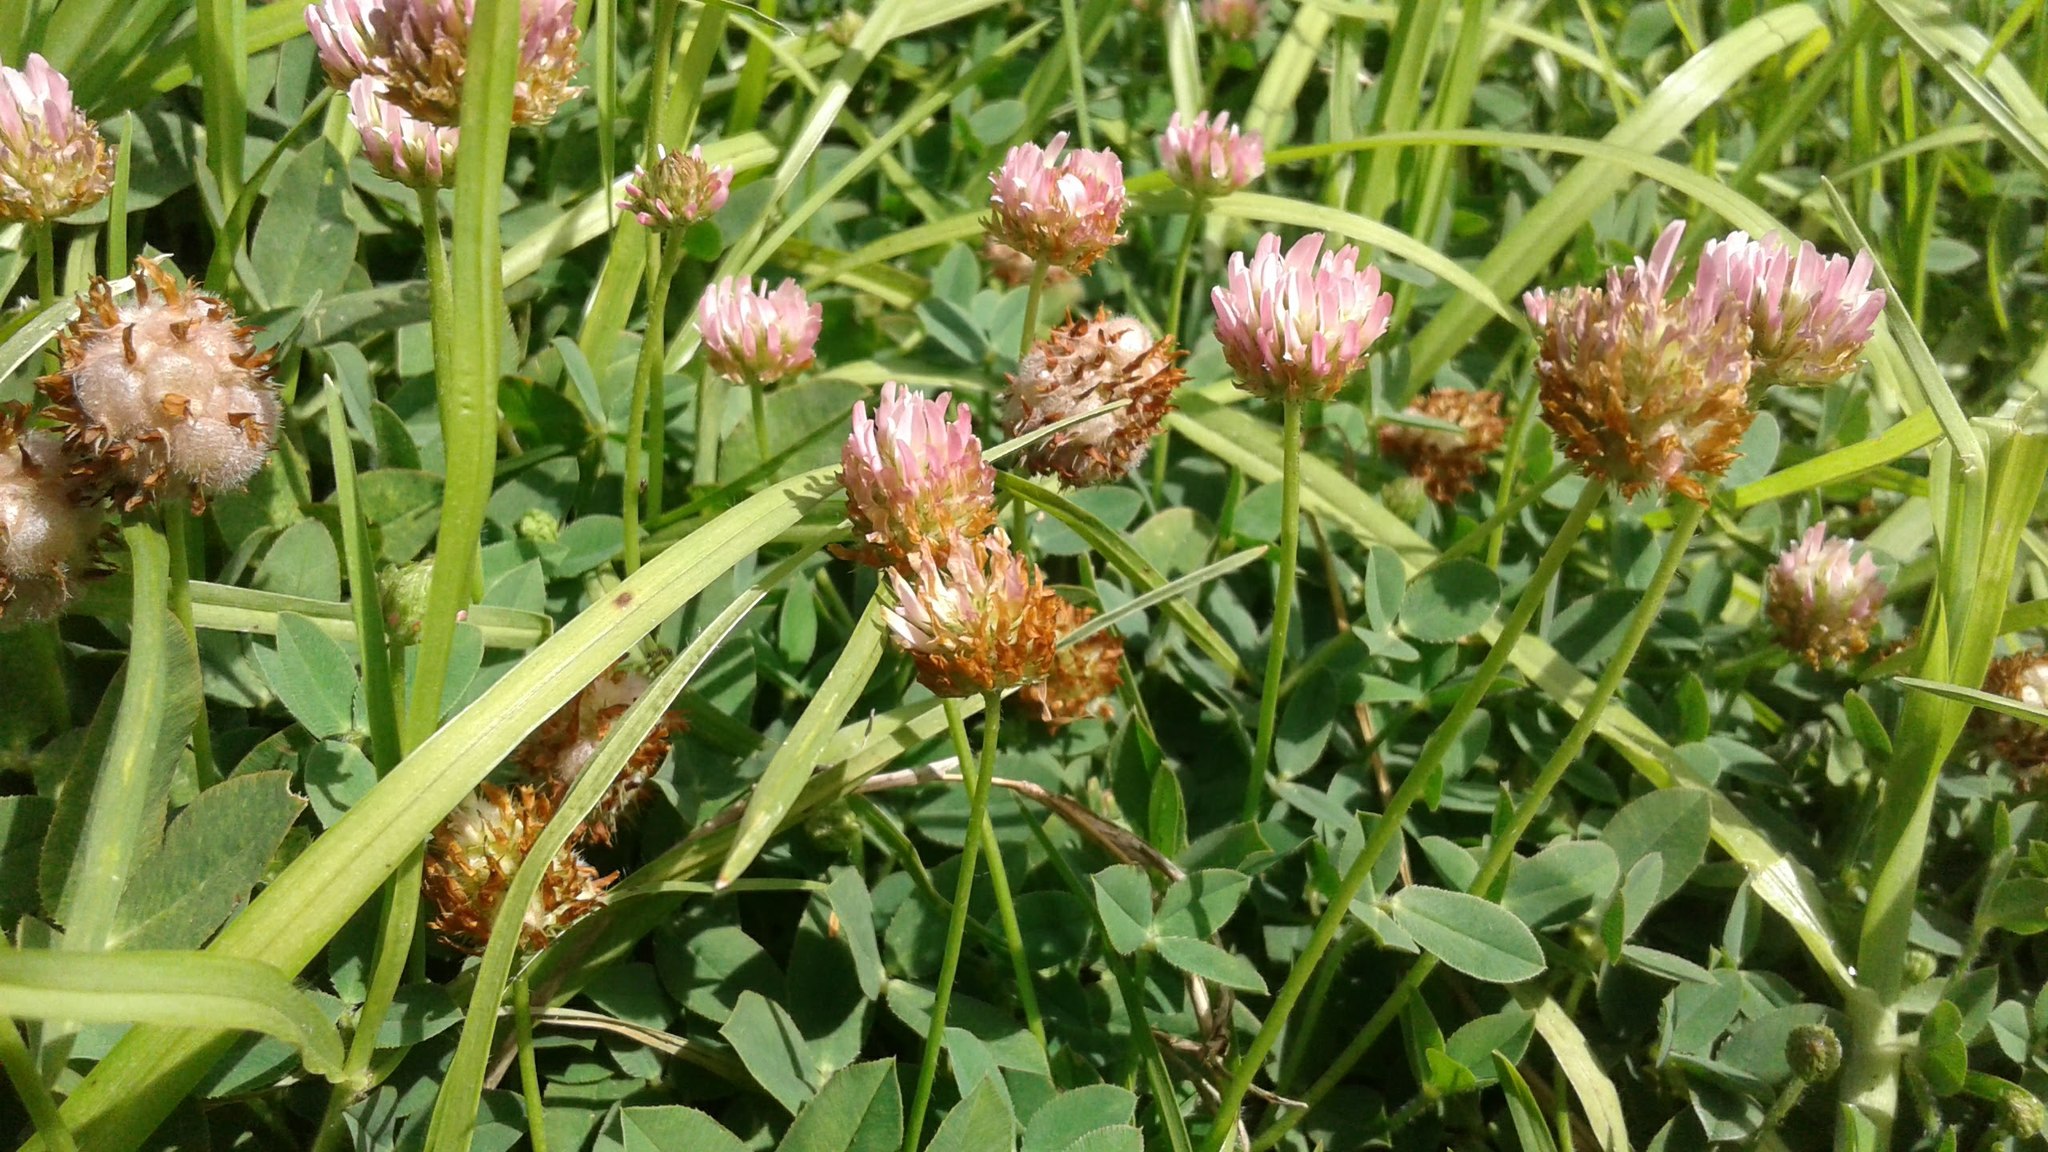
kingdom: Plantae
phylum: Tracheophyta
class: Magnoliopsida
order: Fabales
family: Fabaceae
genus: Trifolium
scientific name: Trifolium fragiferum
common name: Strawberry clover
